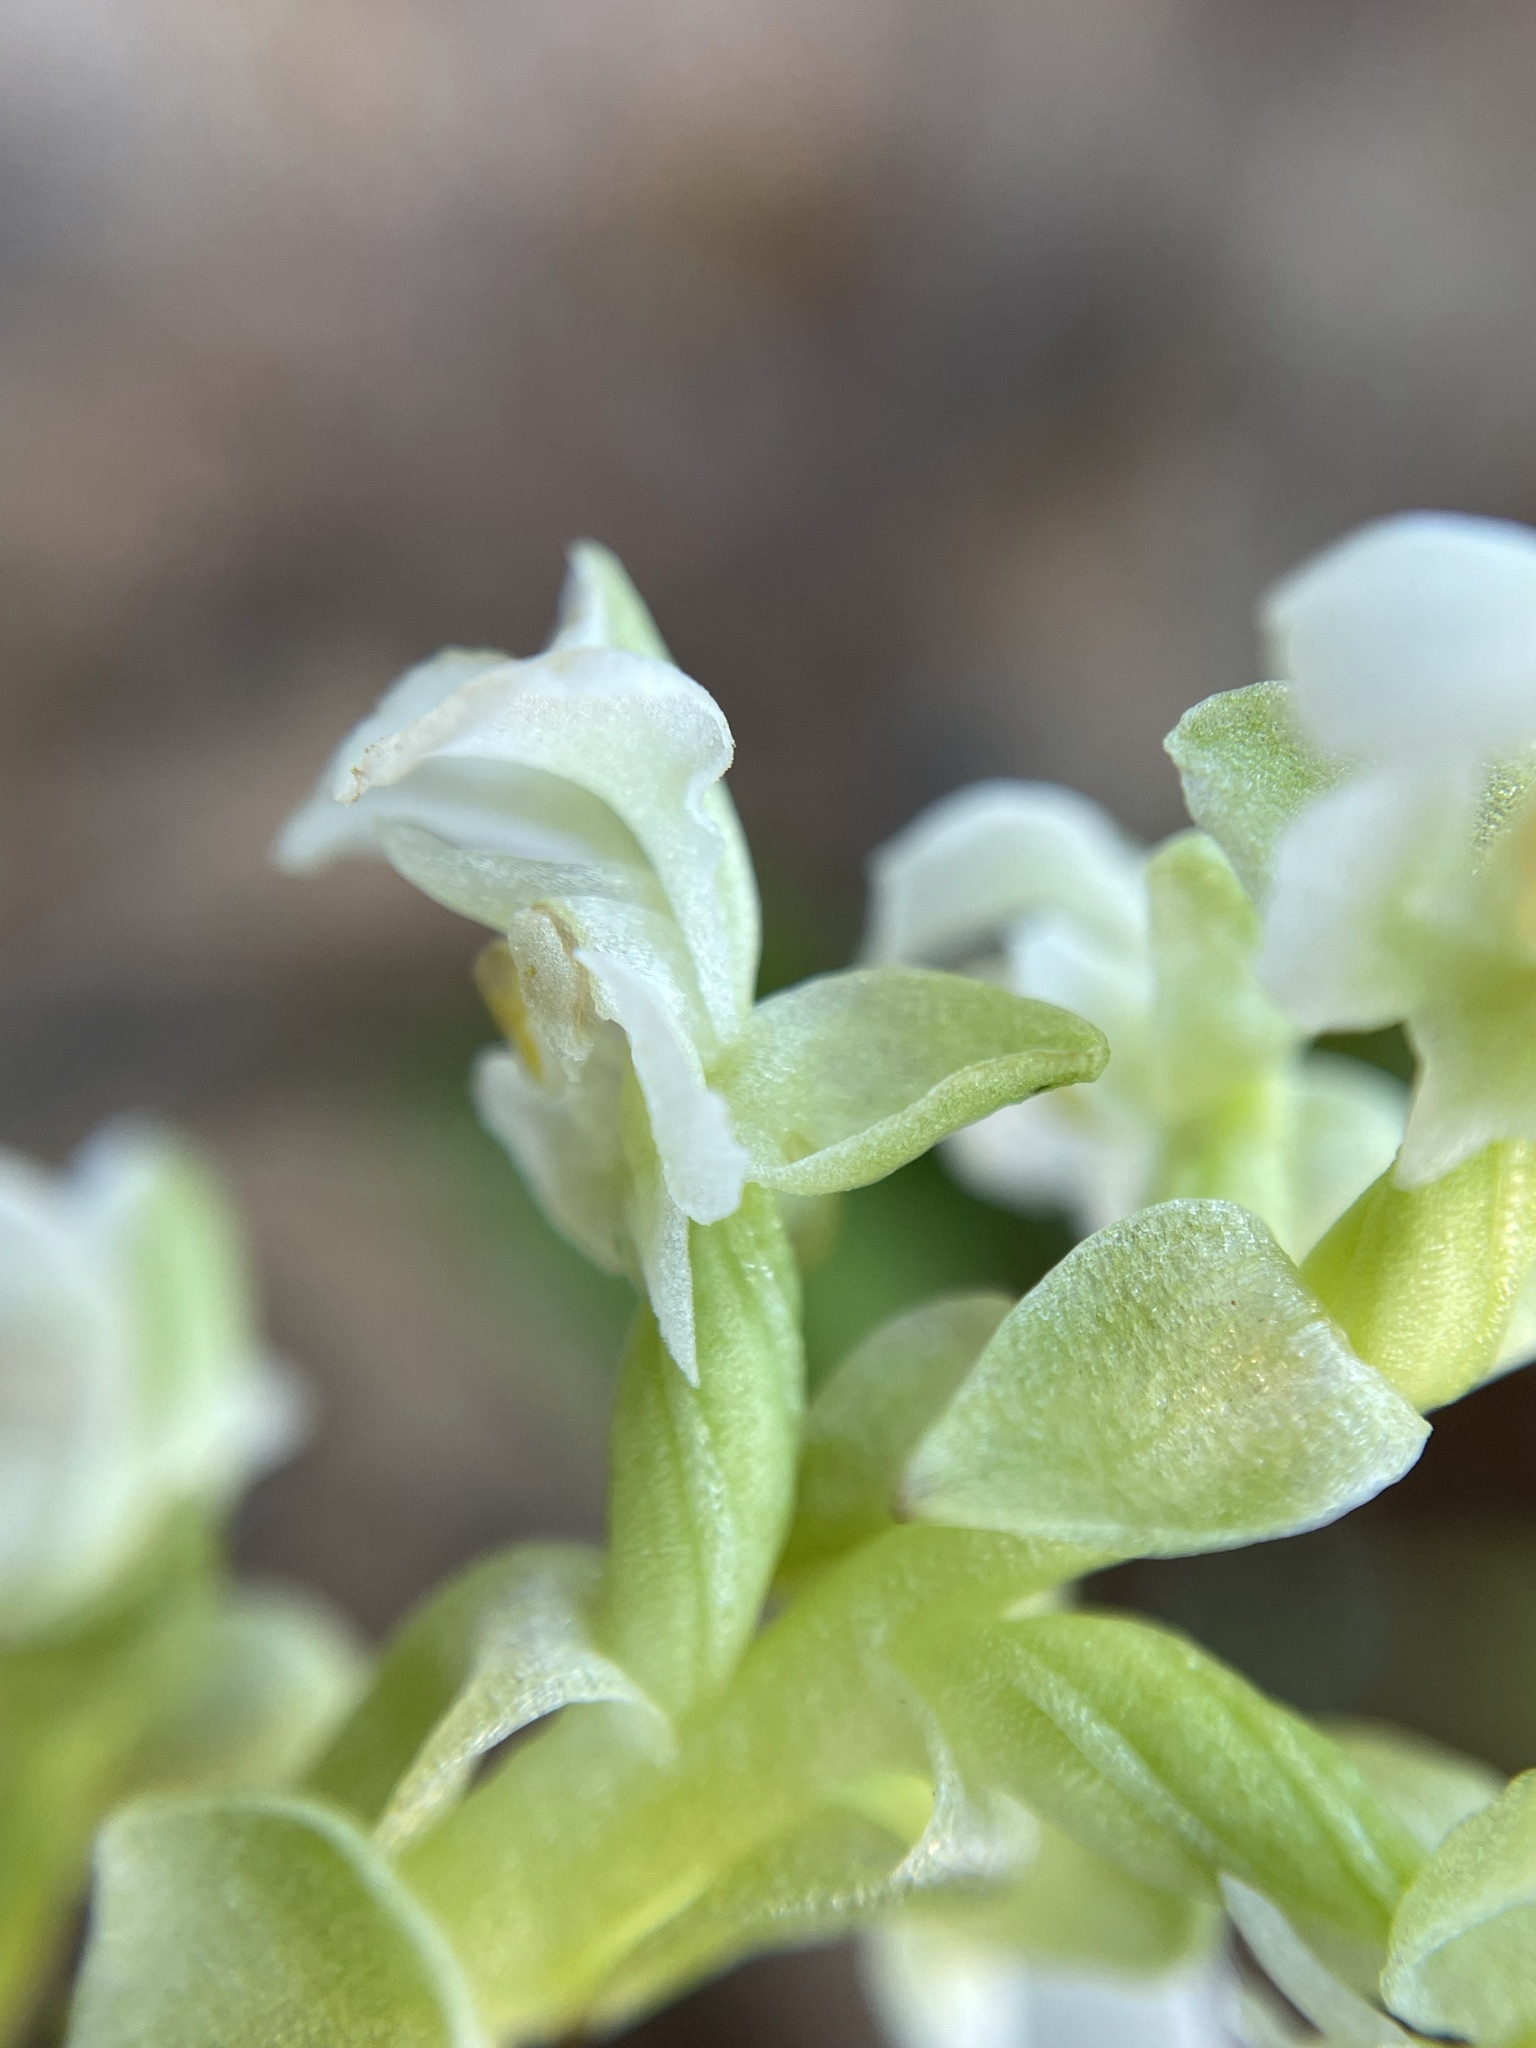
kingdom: Plantae
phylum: Tracheophyta
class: Liliopsida
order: Asparagales
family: Orchidaceae
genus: Pterygodium
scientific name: Pterygodium schelpei
